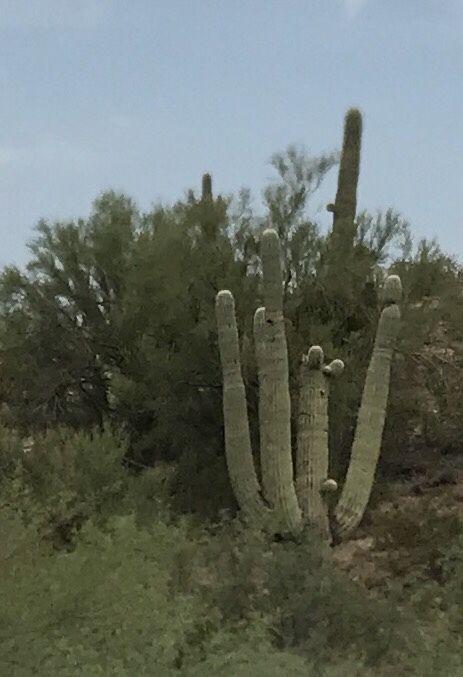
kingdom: Plantae
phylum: Tracheophyta
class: Magnoliopsida
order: Caryophyllales
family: Cactaceae
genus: Carnegiea
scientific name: Carnegiea gigantea
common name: Saguaro
